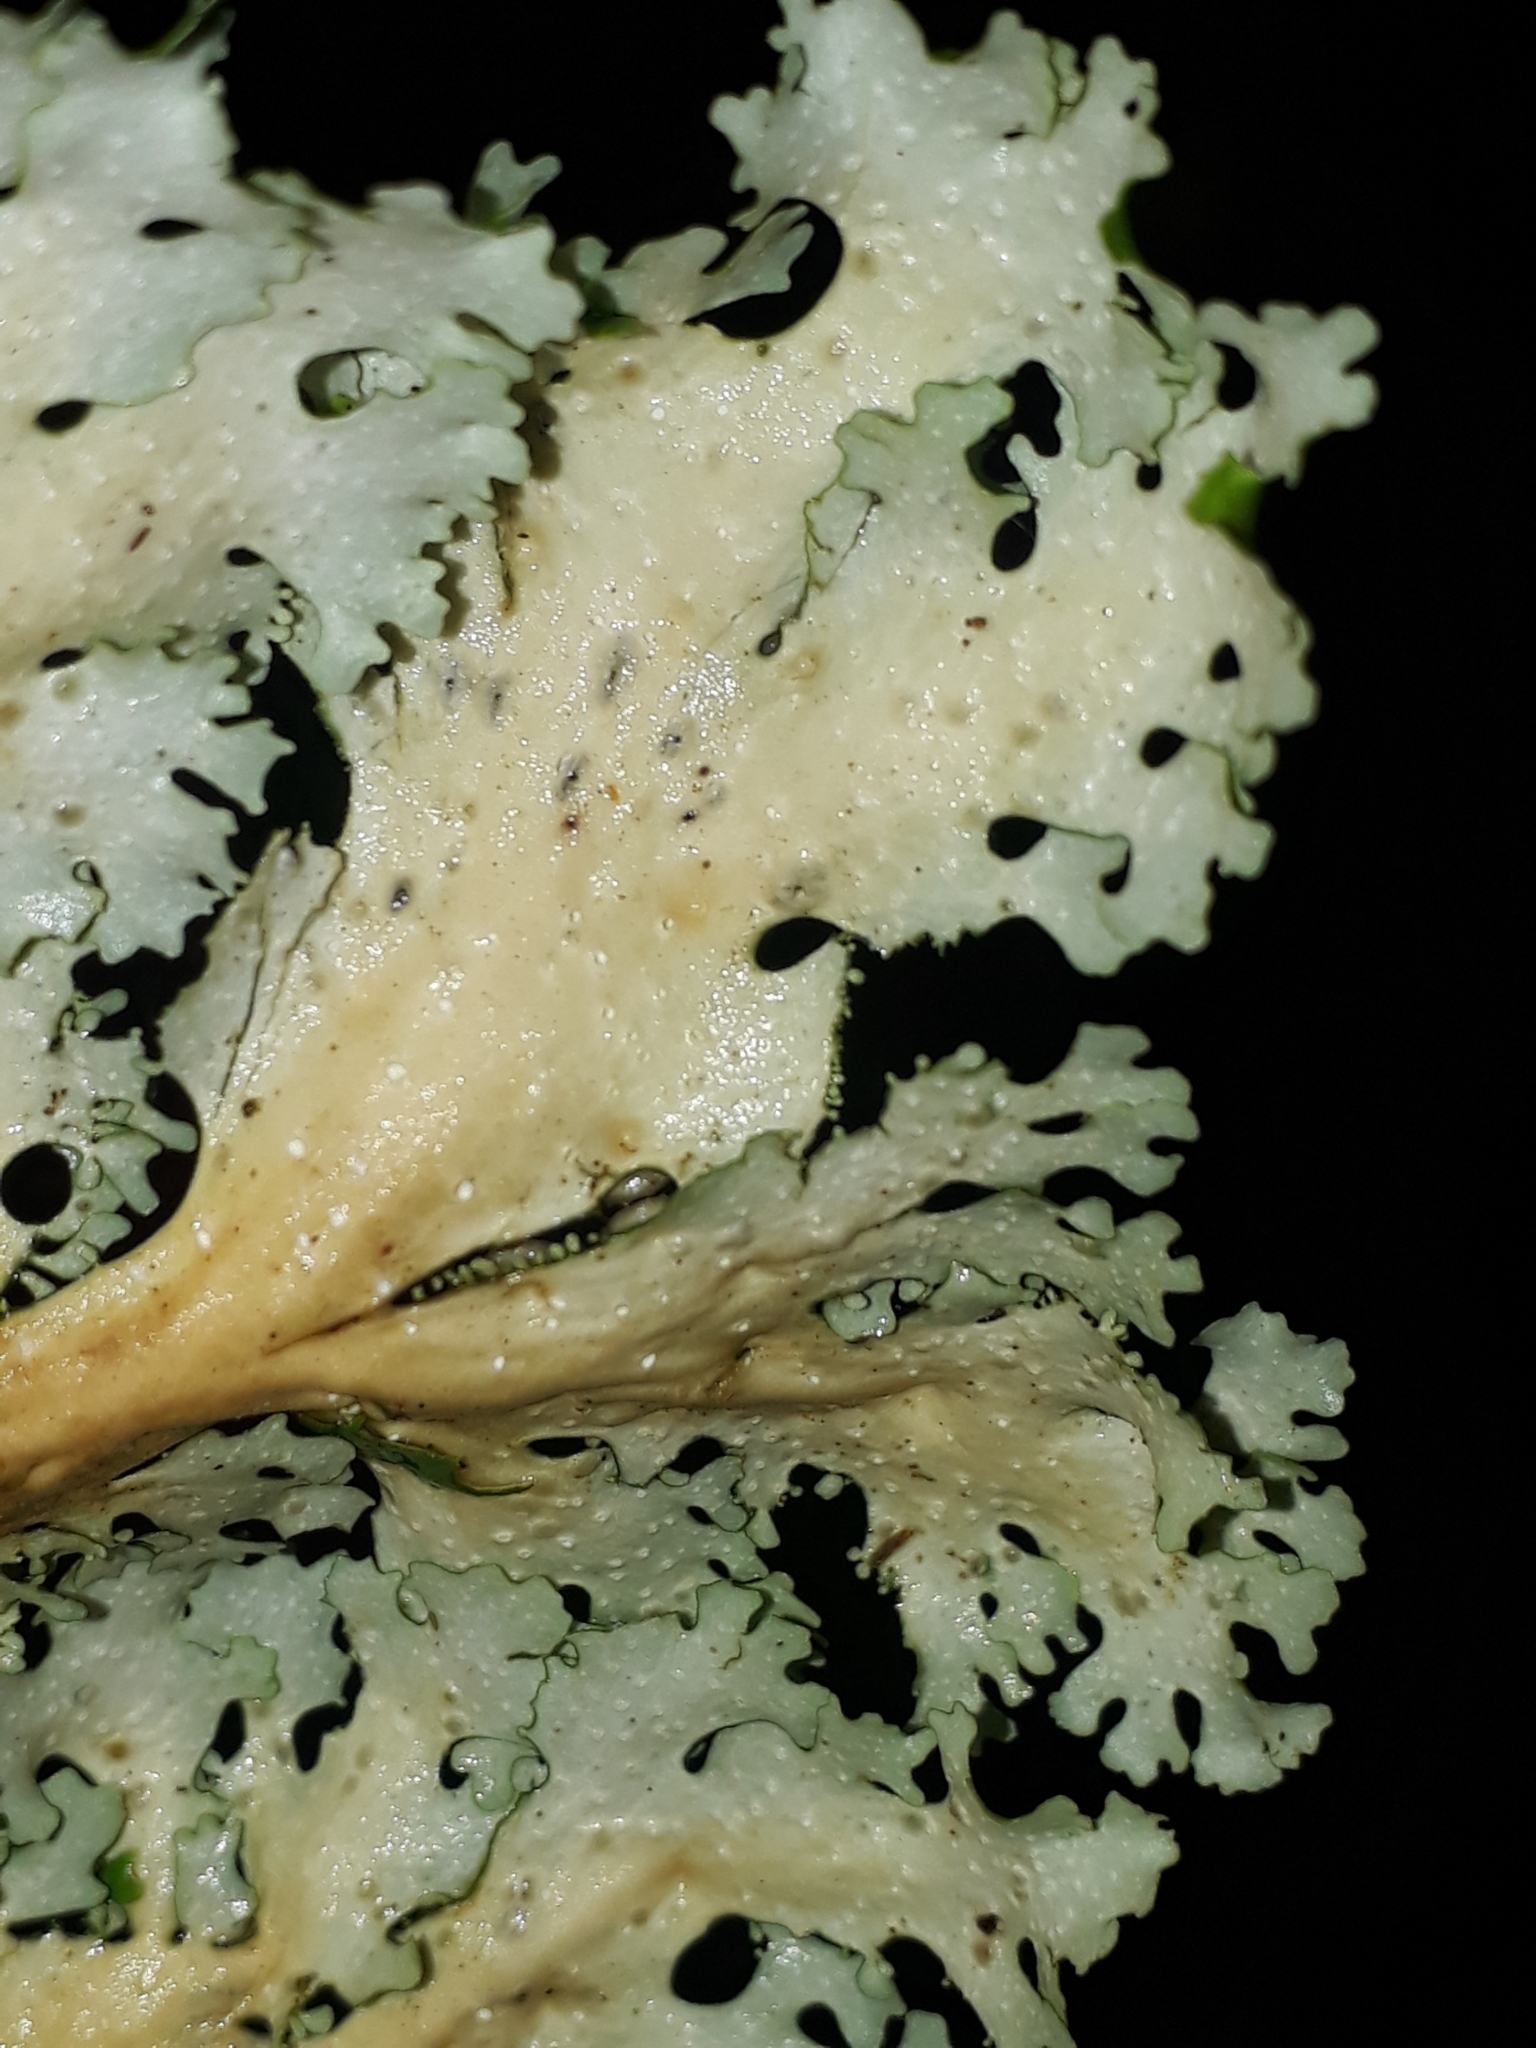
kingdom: Fungi
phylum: Ascomycota
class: Lecanoromycetes
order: Peltigerales
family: Lobariaceae
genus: Sticta
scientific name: Sticta filix
